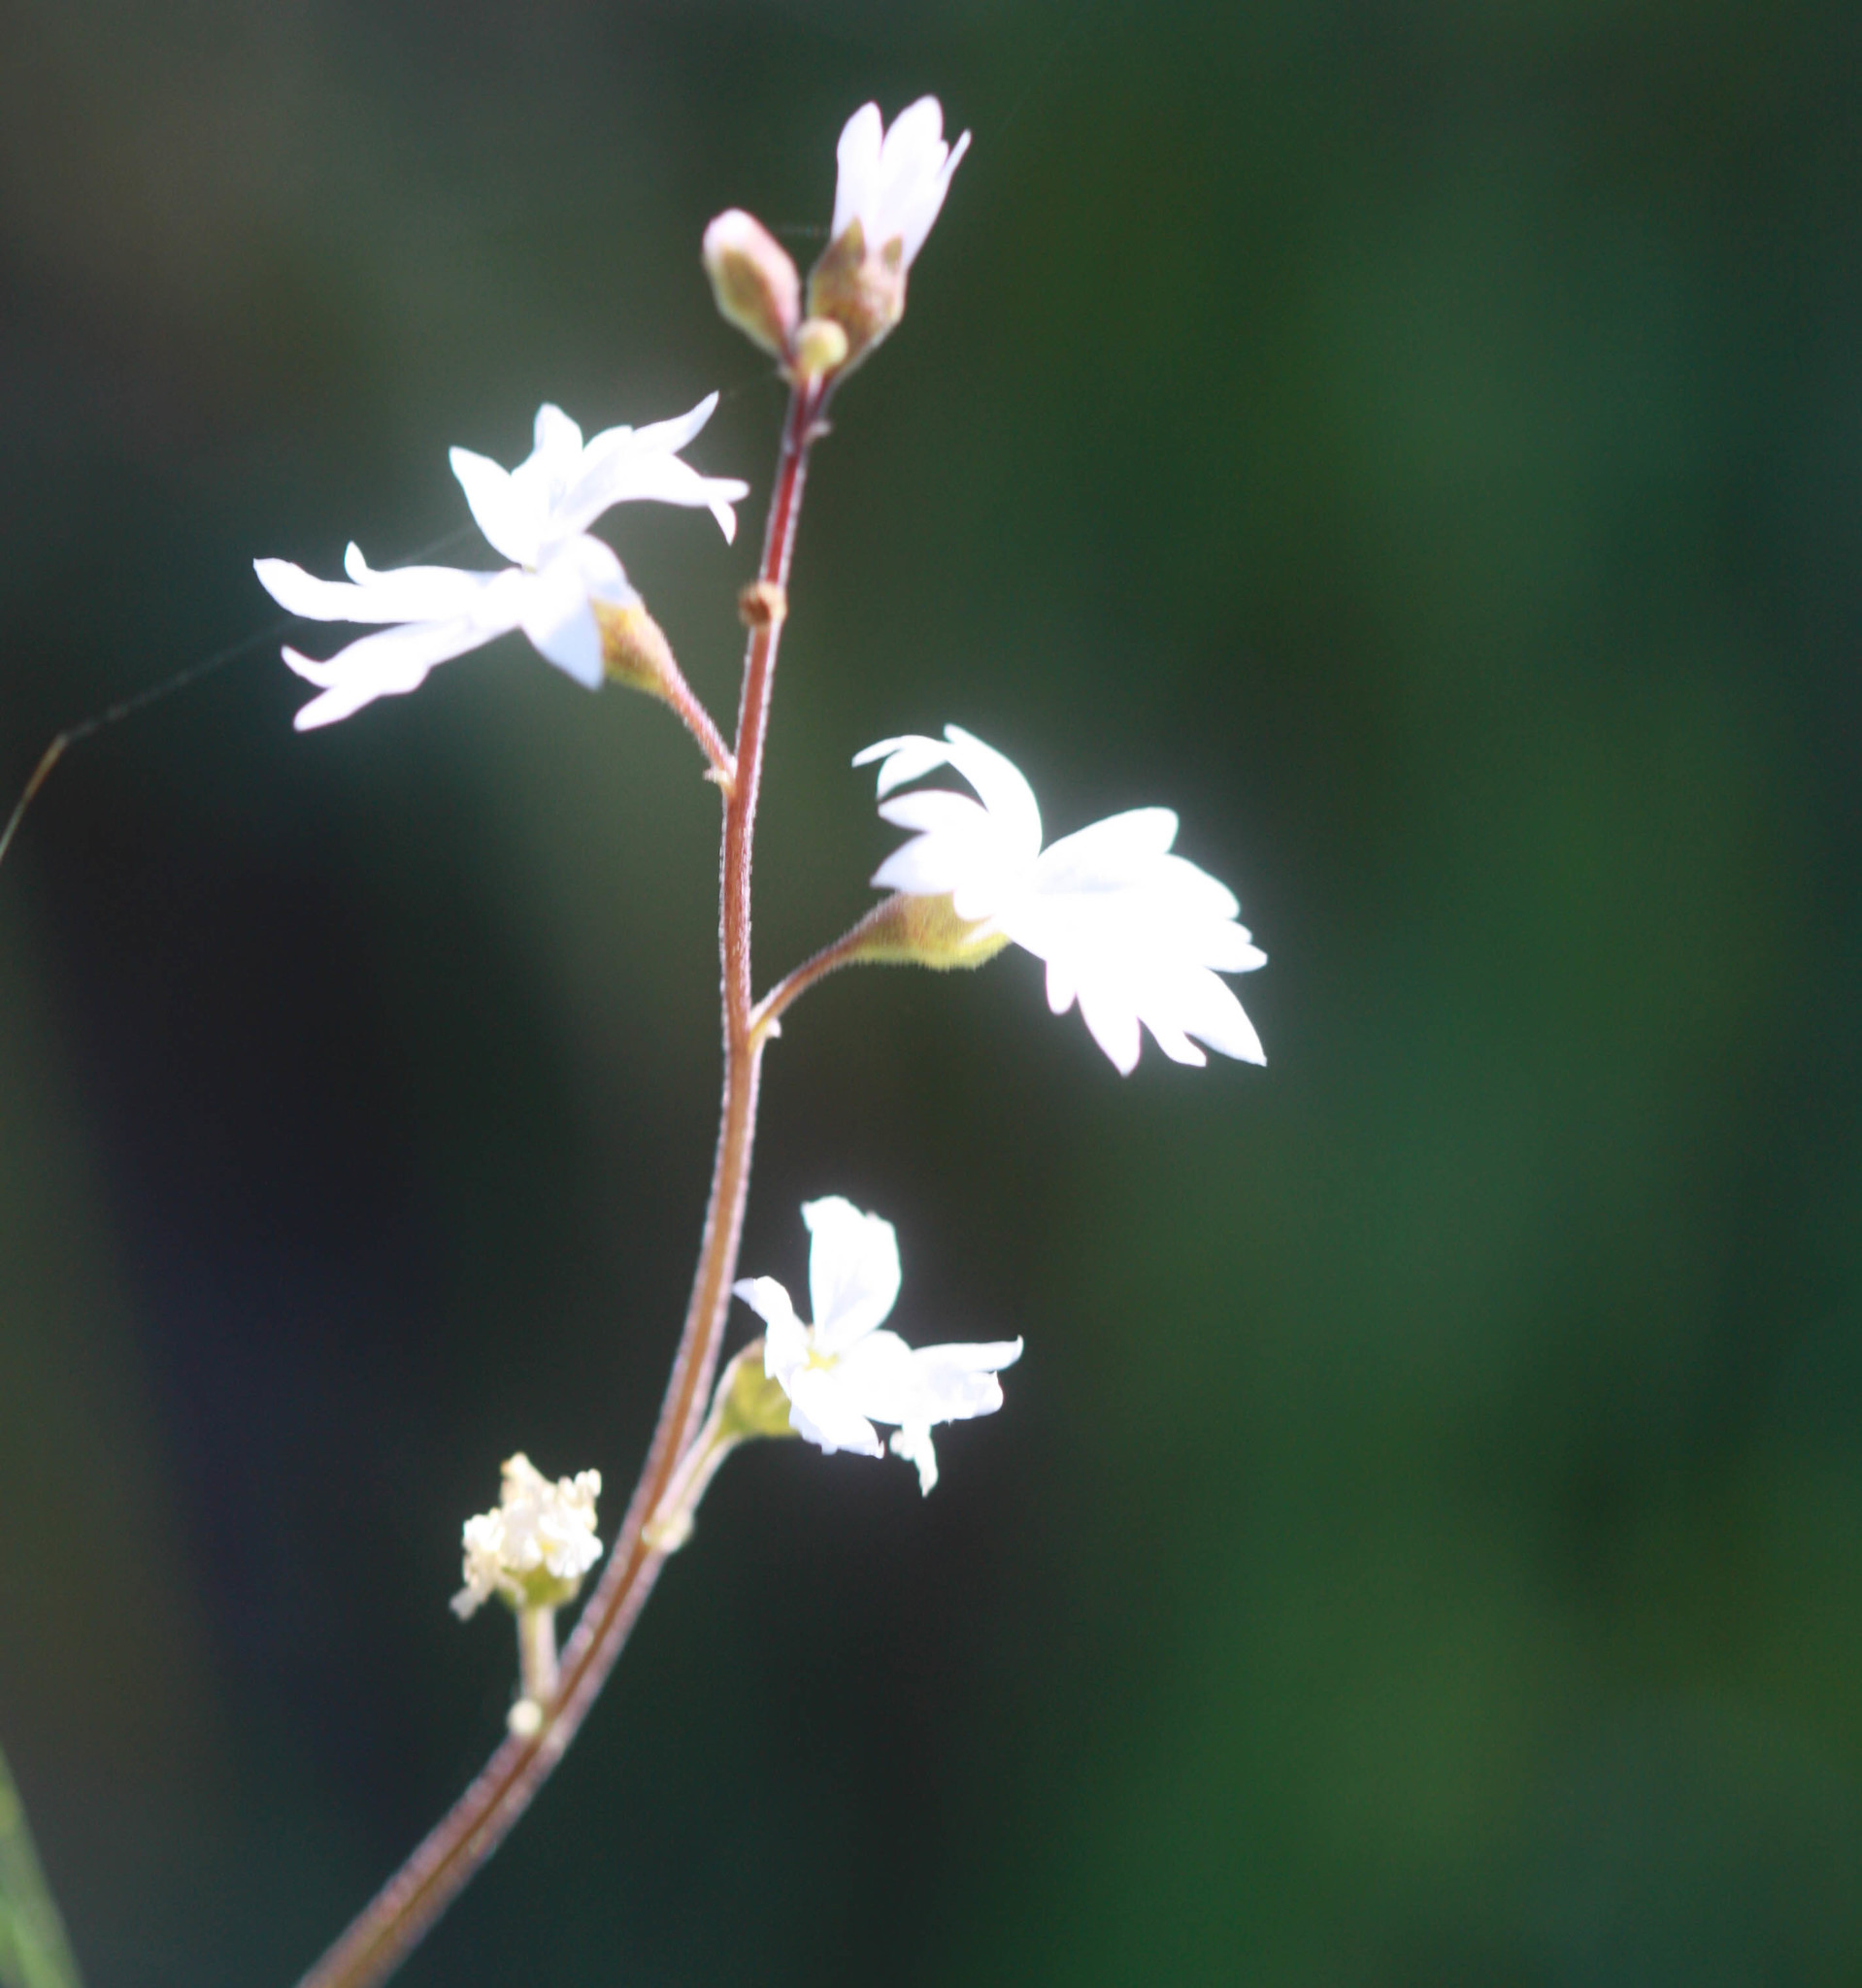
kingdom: Plantae
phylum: Tracheophyta
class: Magnoliopsida
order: Saxifragales
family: Saxifragaceae
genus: Lithophragma
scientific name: Lithophragma affine
